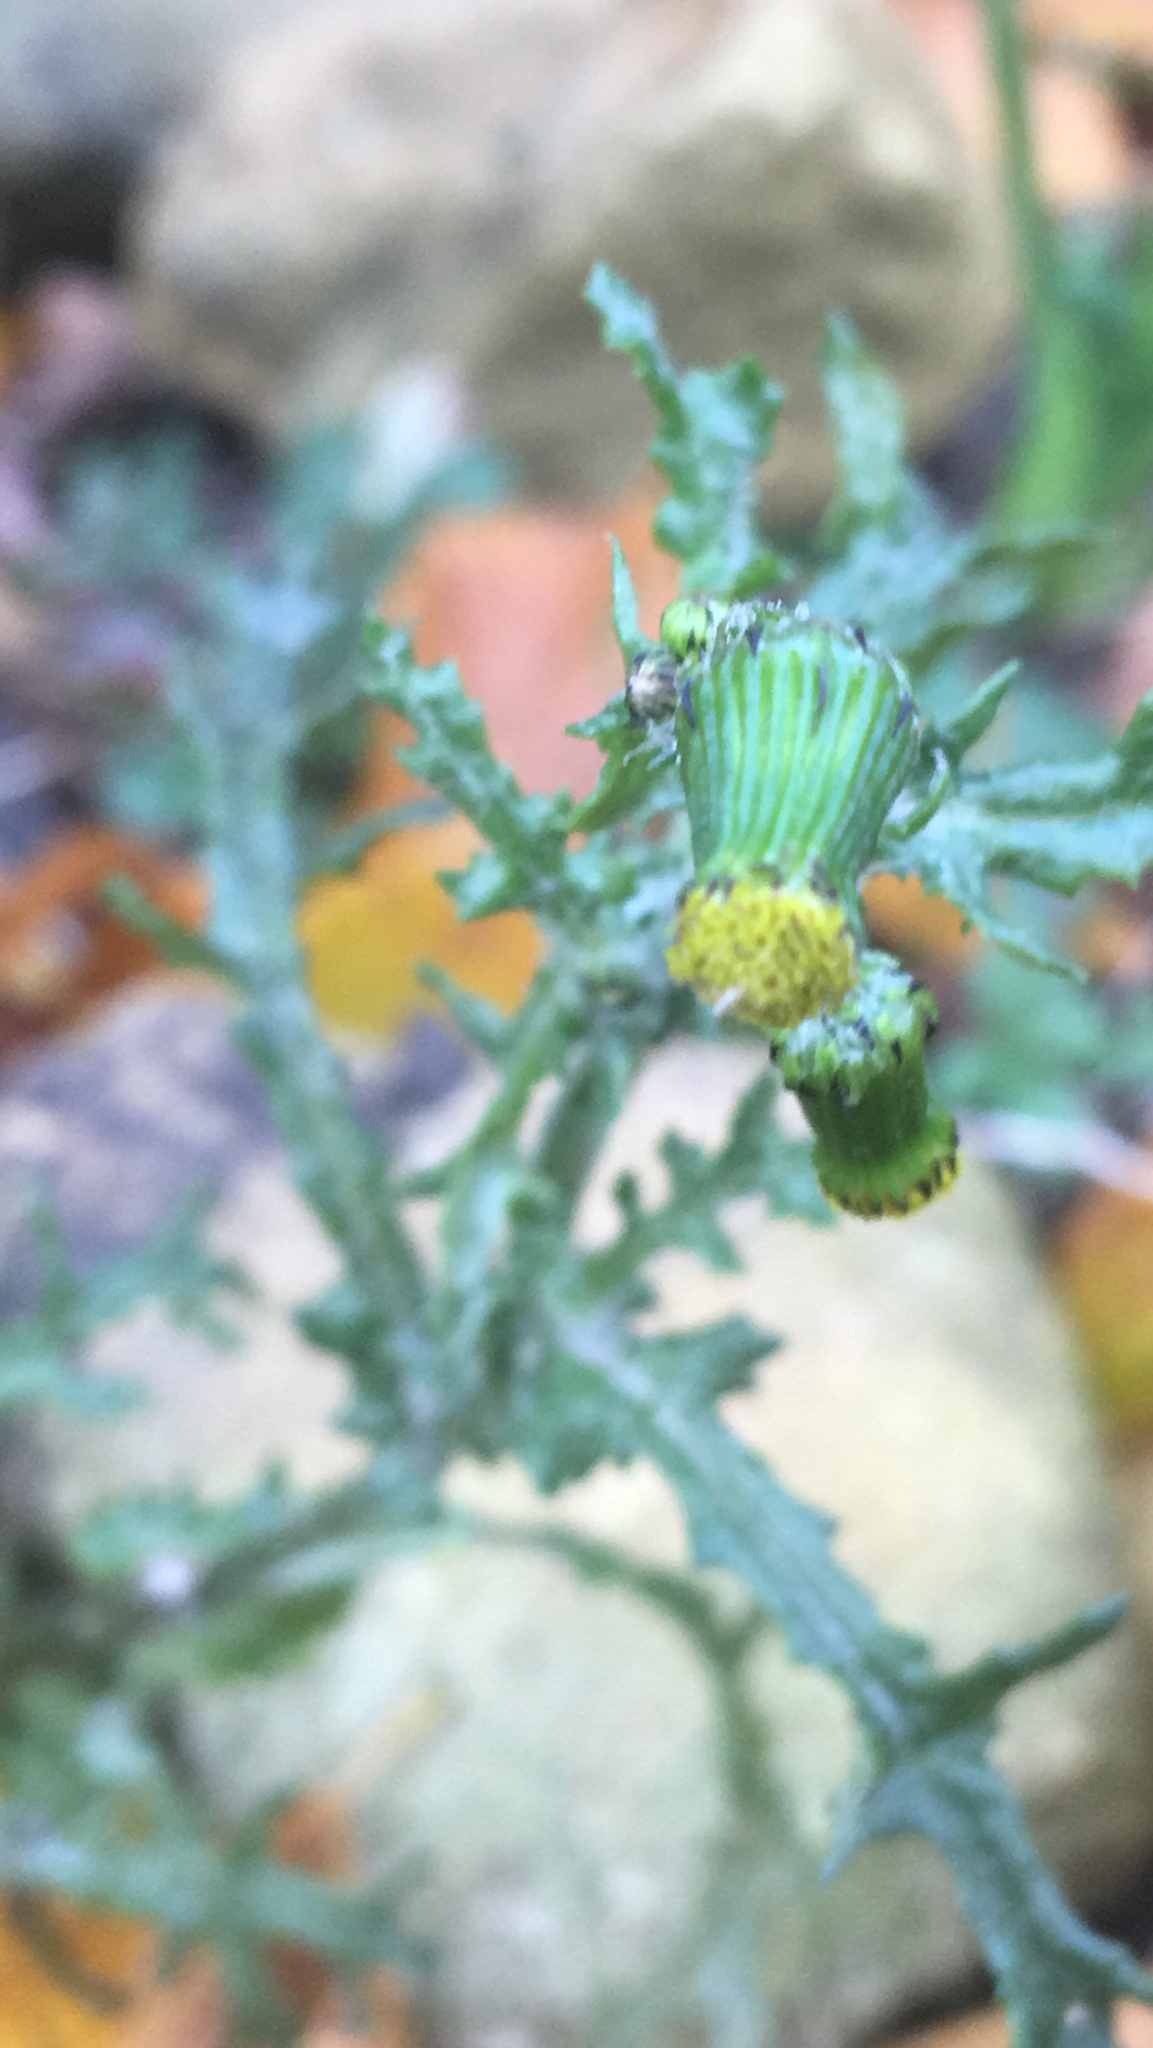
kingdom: Plantae
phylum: Tracheophyta
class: Magnoliopsida
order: Asterales
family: Asteraceae
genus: Senecio
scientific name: Senecio vulgaris
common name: Old-man-in-the-spring
